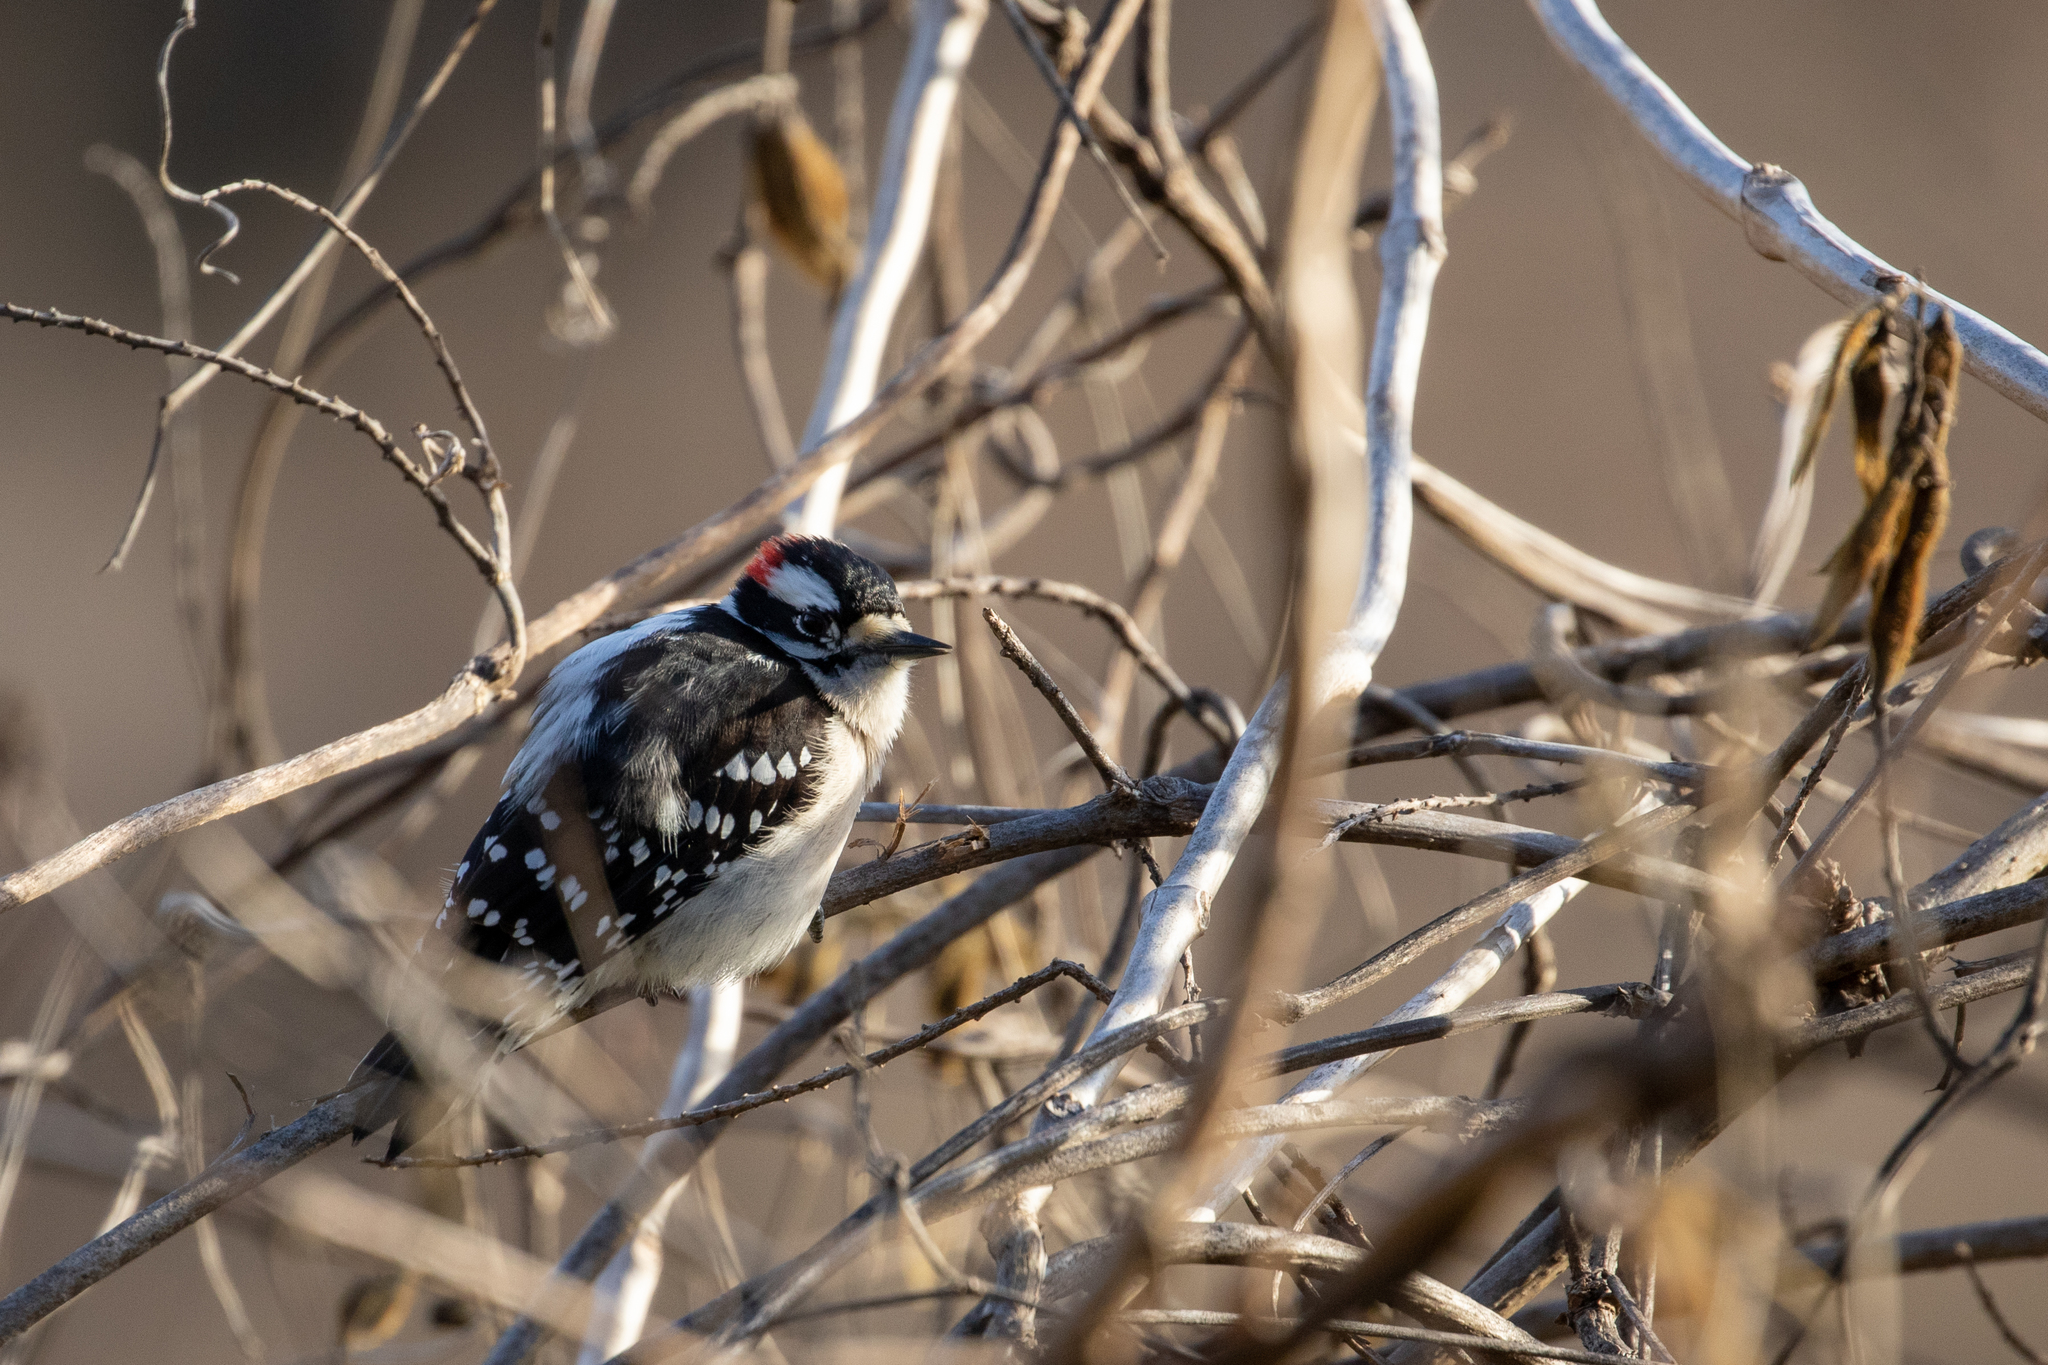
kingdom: Animalia
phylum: Chordata
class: Aves
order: Piciformes
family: Picidae
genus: Dryobates
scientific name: Dryobates pubescens
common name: Downy woodpecker
